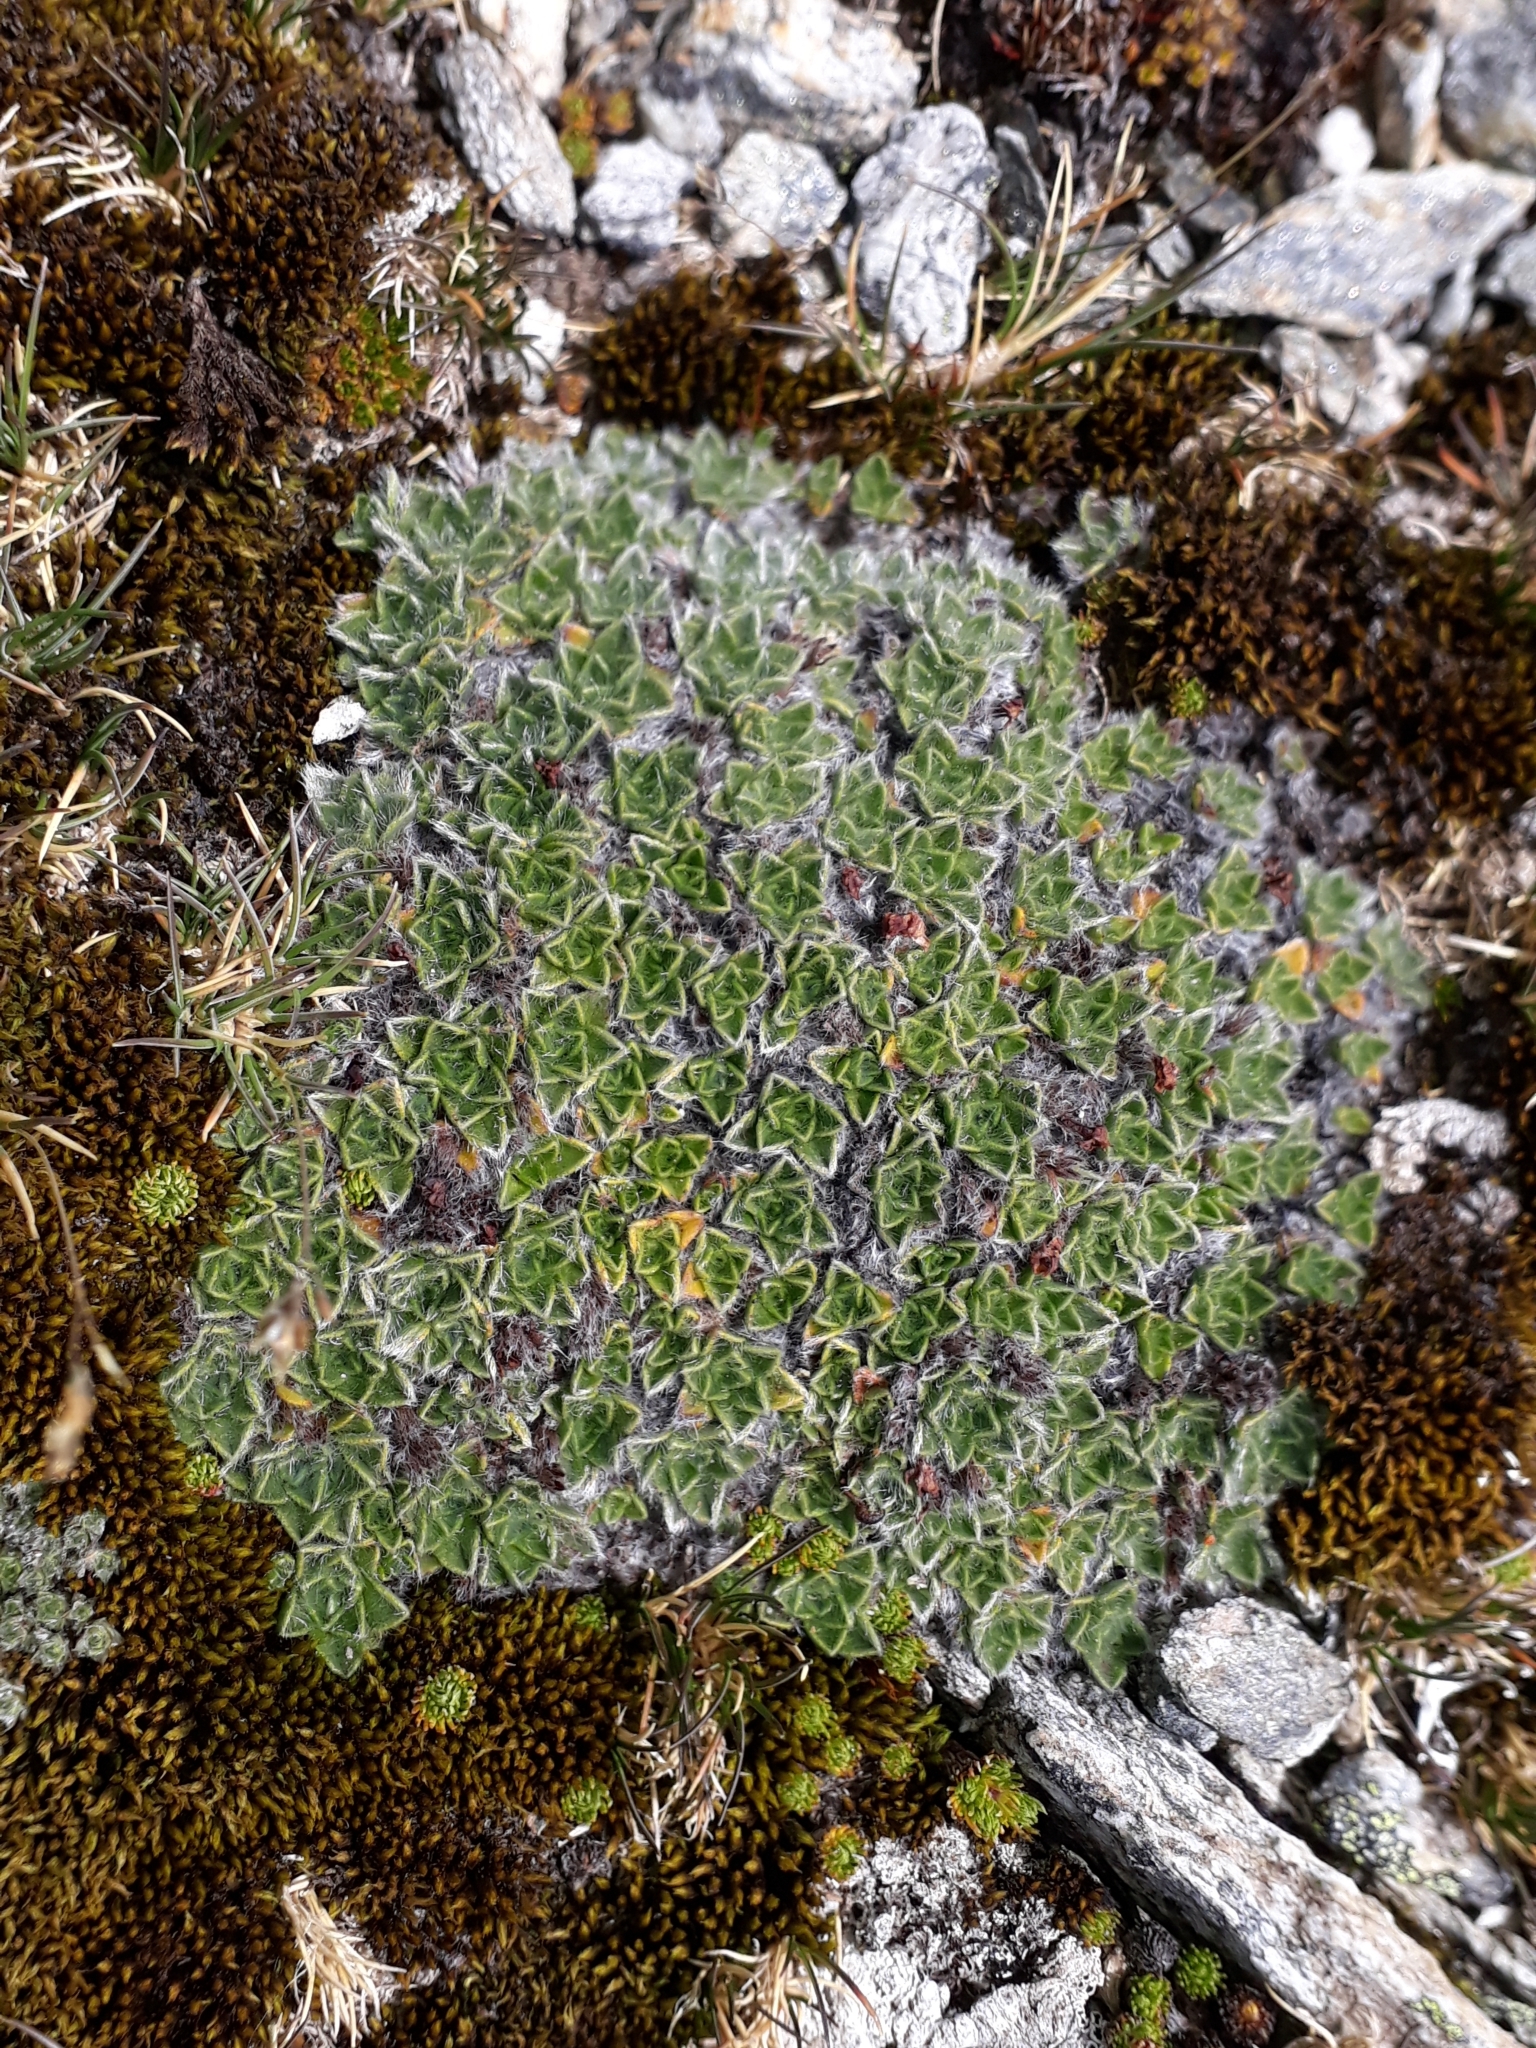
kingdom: Plantae
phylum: Tracheophyta
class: Magnoliopsida
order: Boraginales
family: Boraginaceae
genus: Myosotis
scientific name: Myosotis pulvinaris
